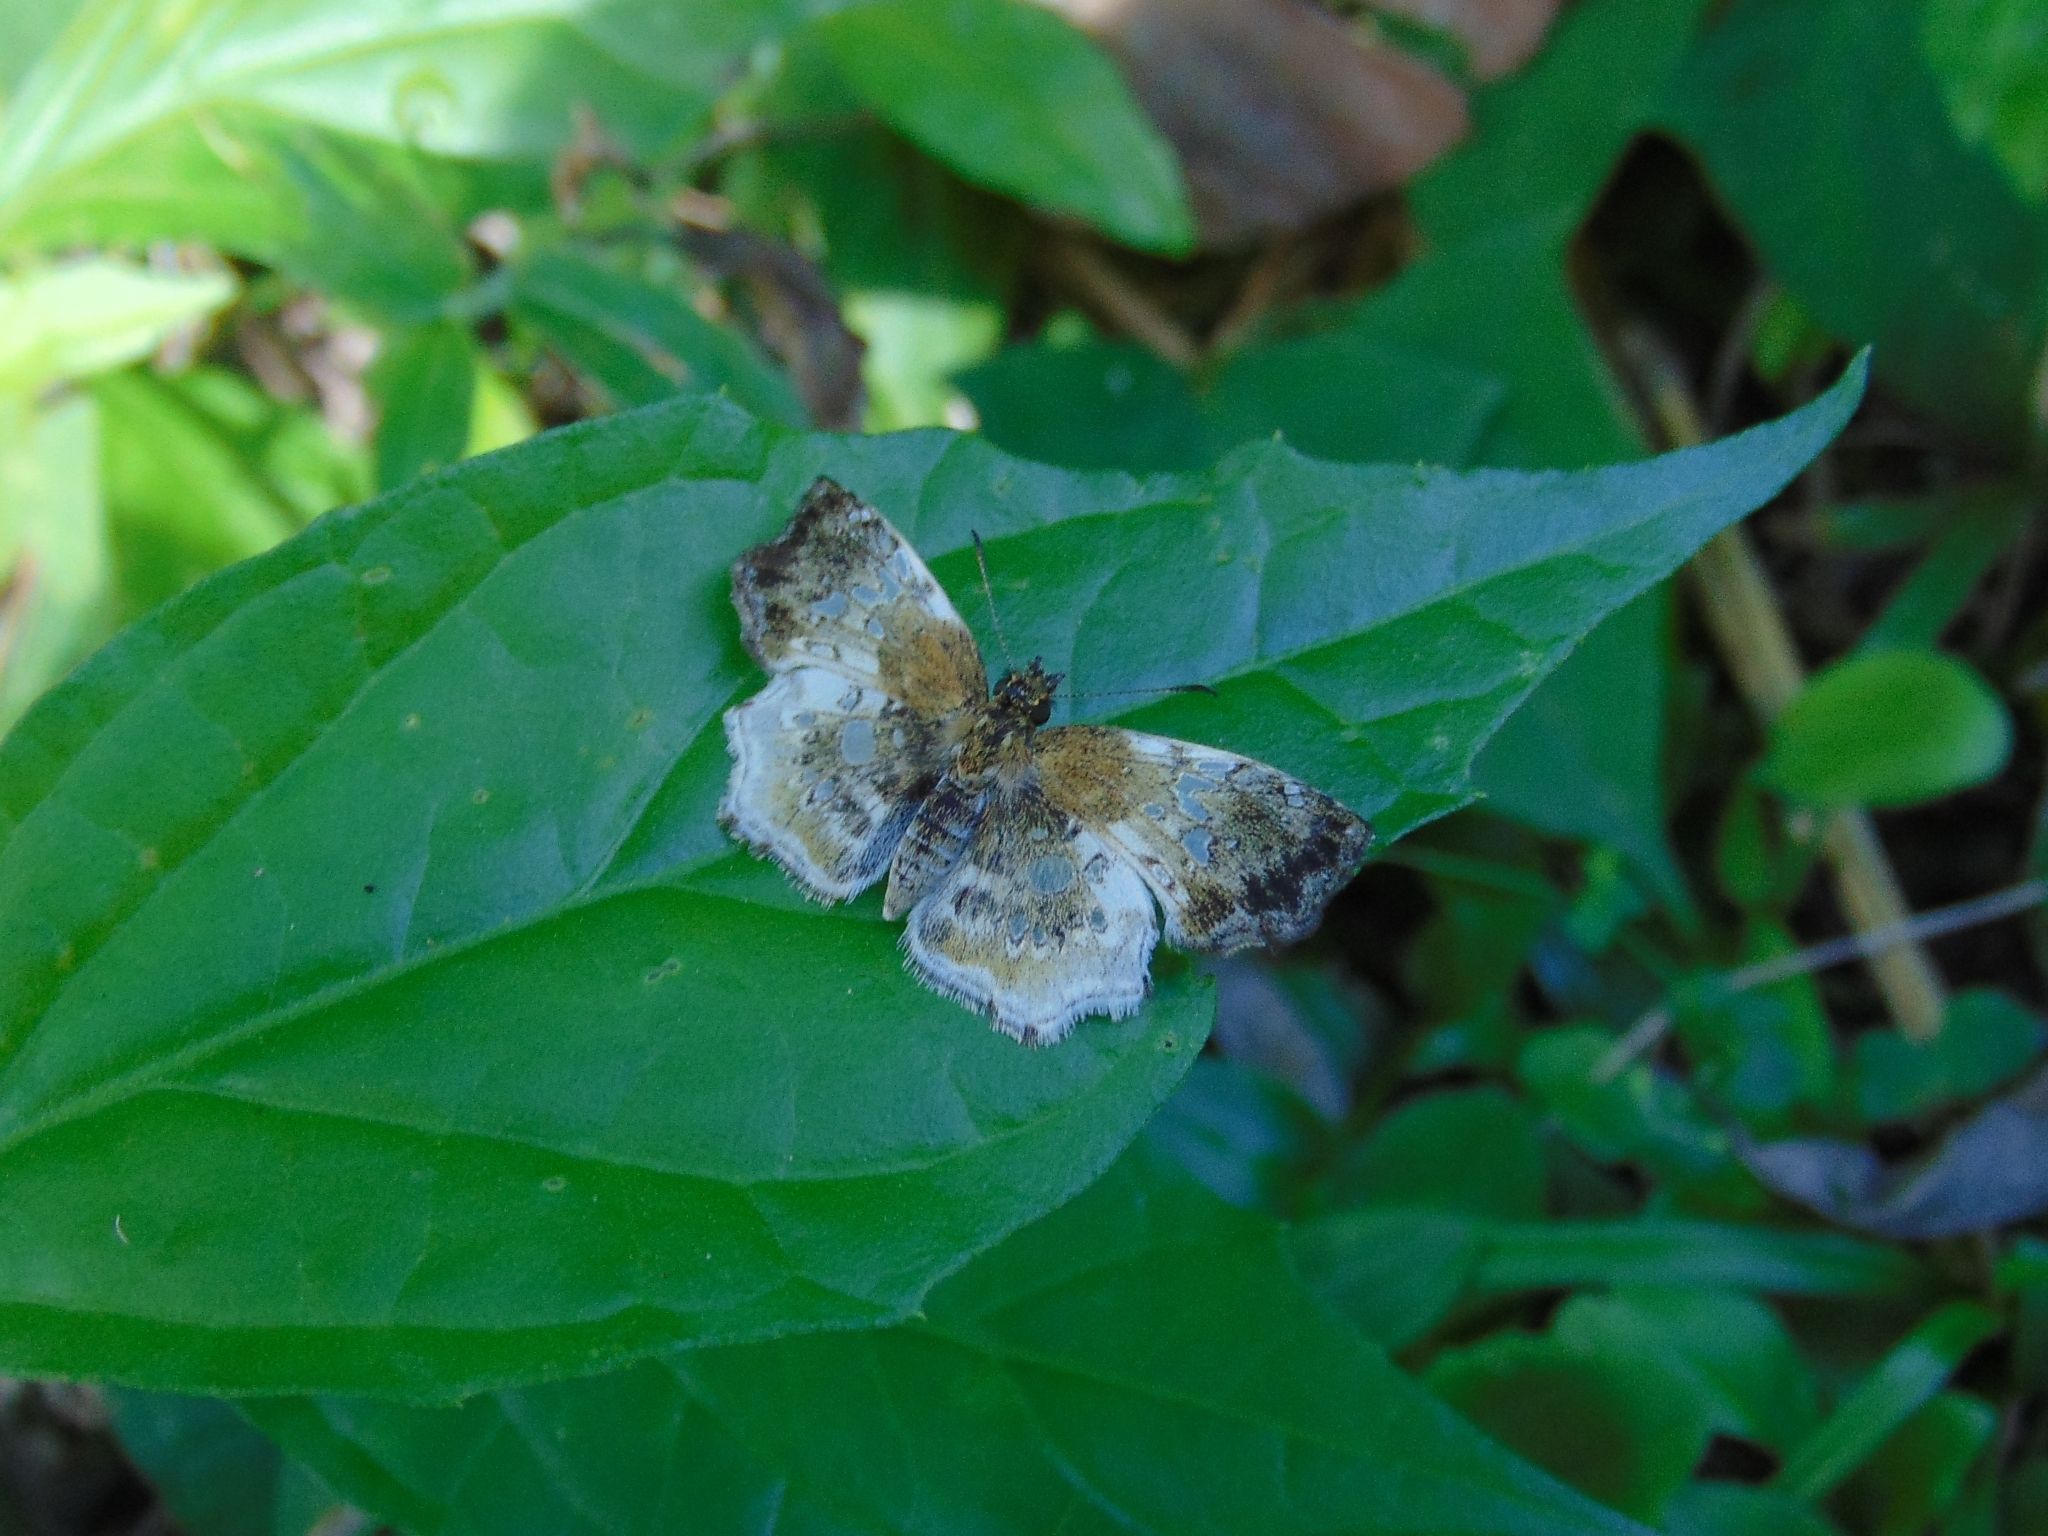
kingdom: Animalia
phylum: Arthropoda
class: Insecta
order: Lepidoptera
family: Hesperiidae
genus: Diaeus
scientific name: Diaeus lacaena
